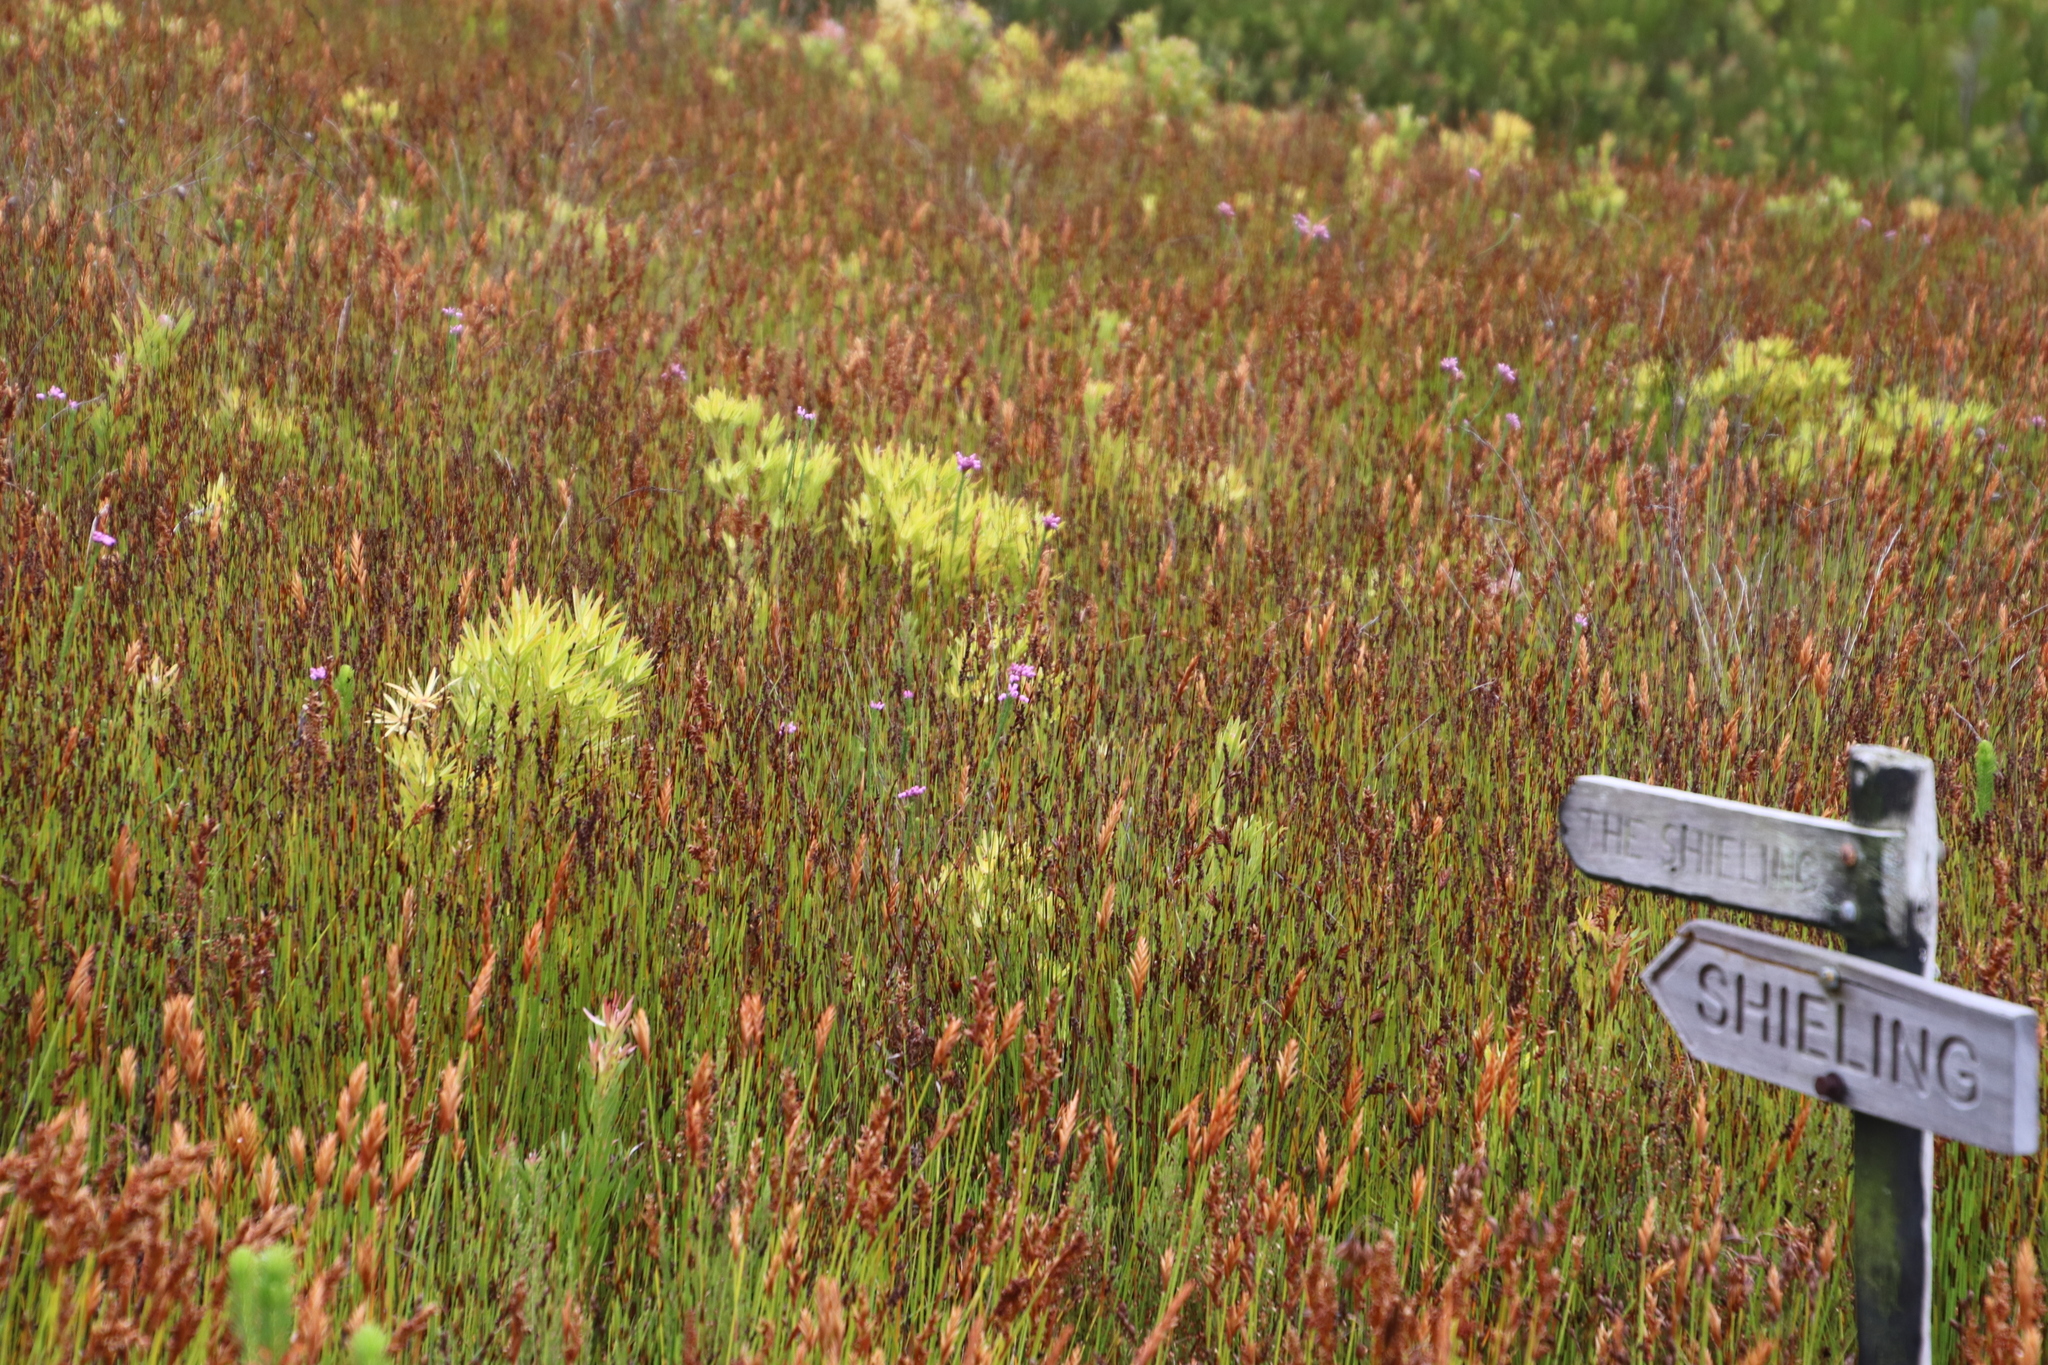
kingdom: Plantae
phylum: Tracheophyta
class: Magnoliopsida
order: Ericales
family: Ericaceae
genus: Erica
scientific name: Erica obliqua
